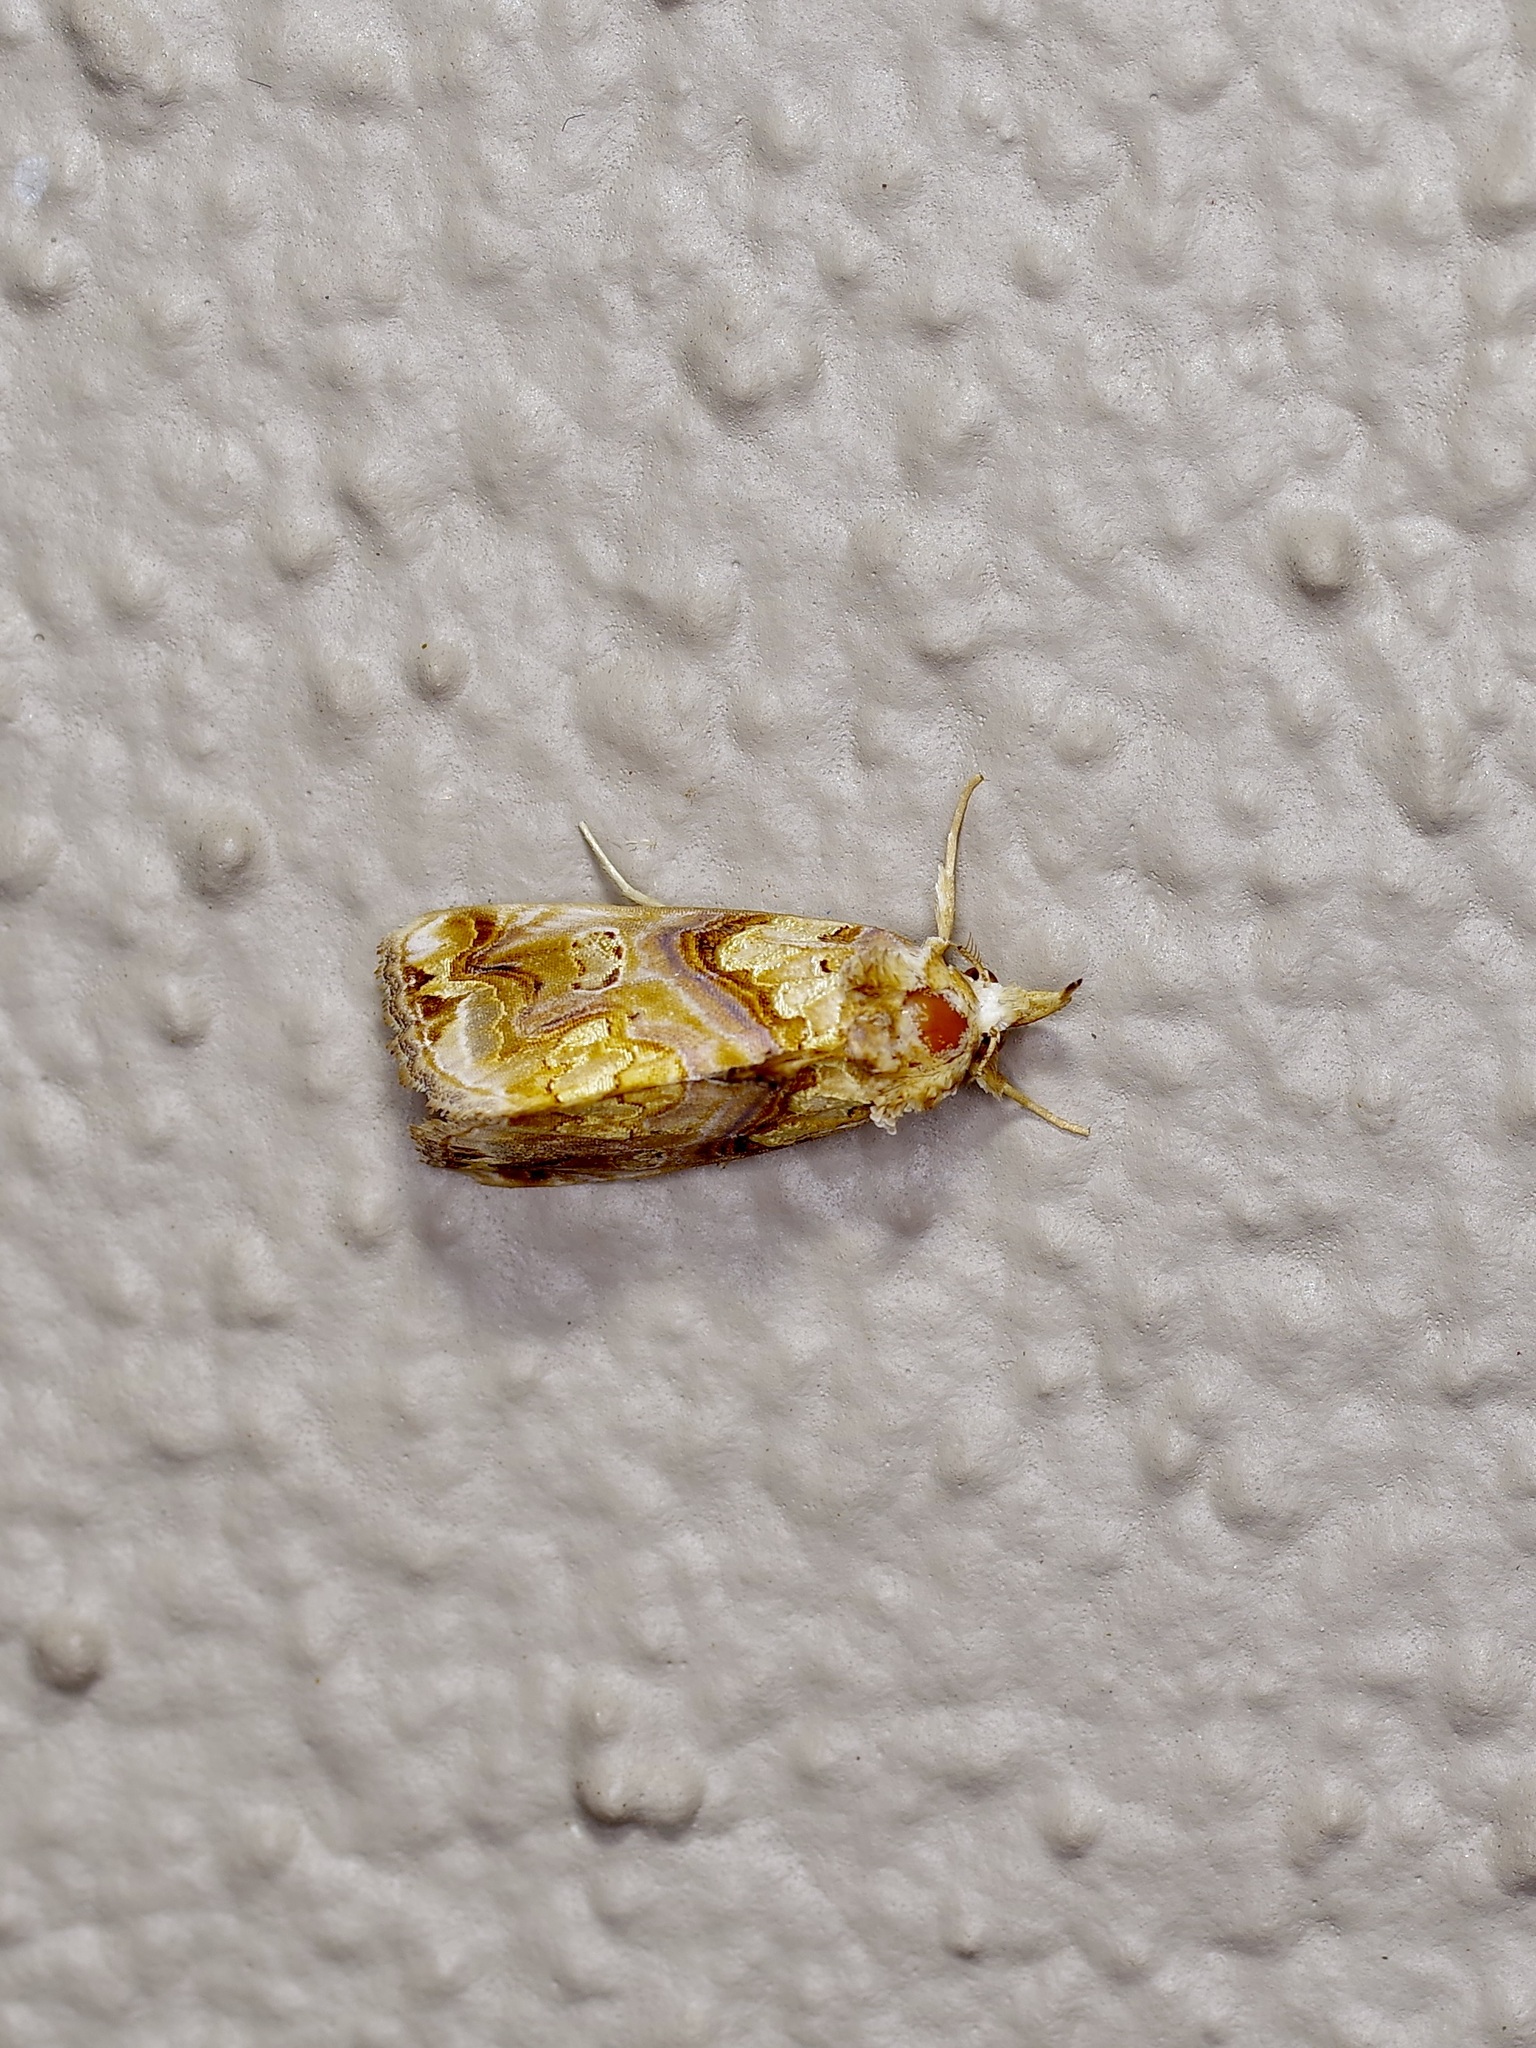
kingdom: Animalia
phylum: Arthropoda
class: Insecta
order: Lepidoptera
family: Erebidae
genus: Plusiodonta
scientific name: Plusiodonta compressipalpis
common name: Moonseed moth
